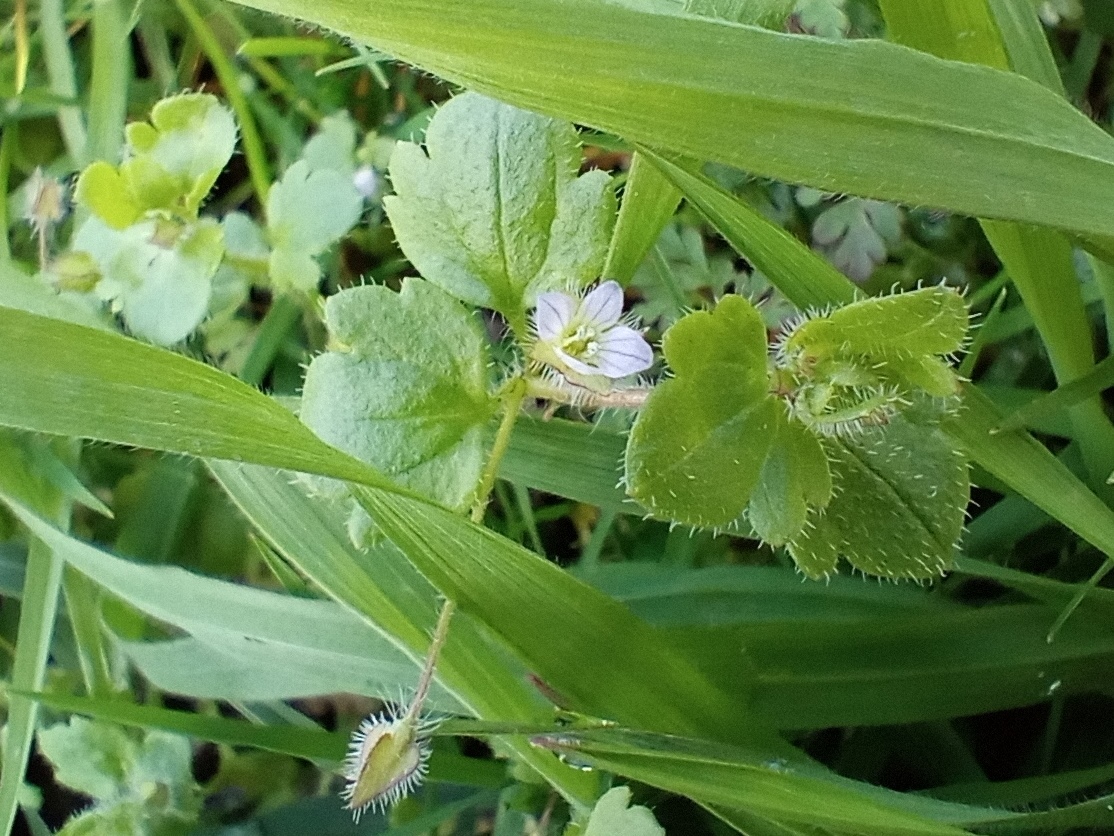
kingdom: Plantae
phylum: Tracheophyta
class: Magnoliopsida
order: Lamiales
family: Plantaginaceae
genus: Veronica
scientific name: Veronica sublobata
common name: False ivy-leaved speedwell
